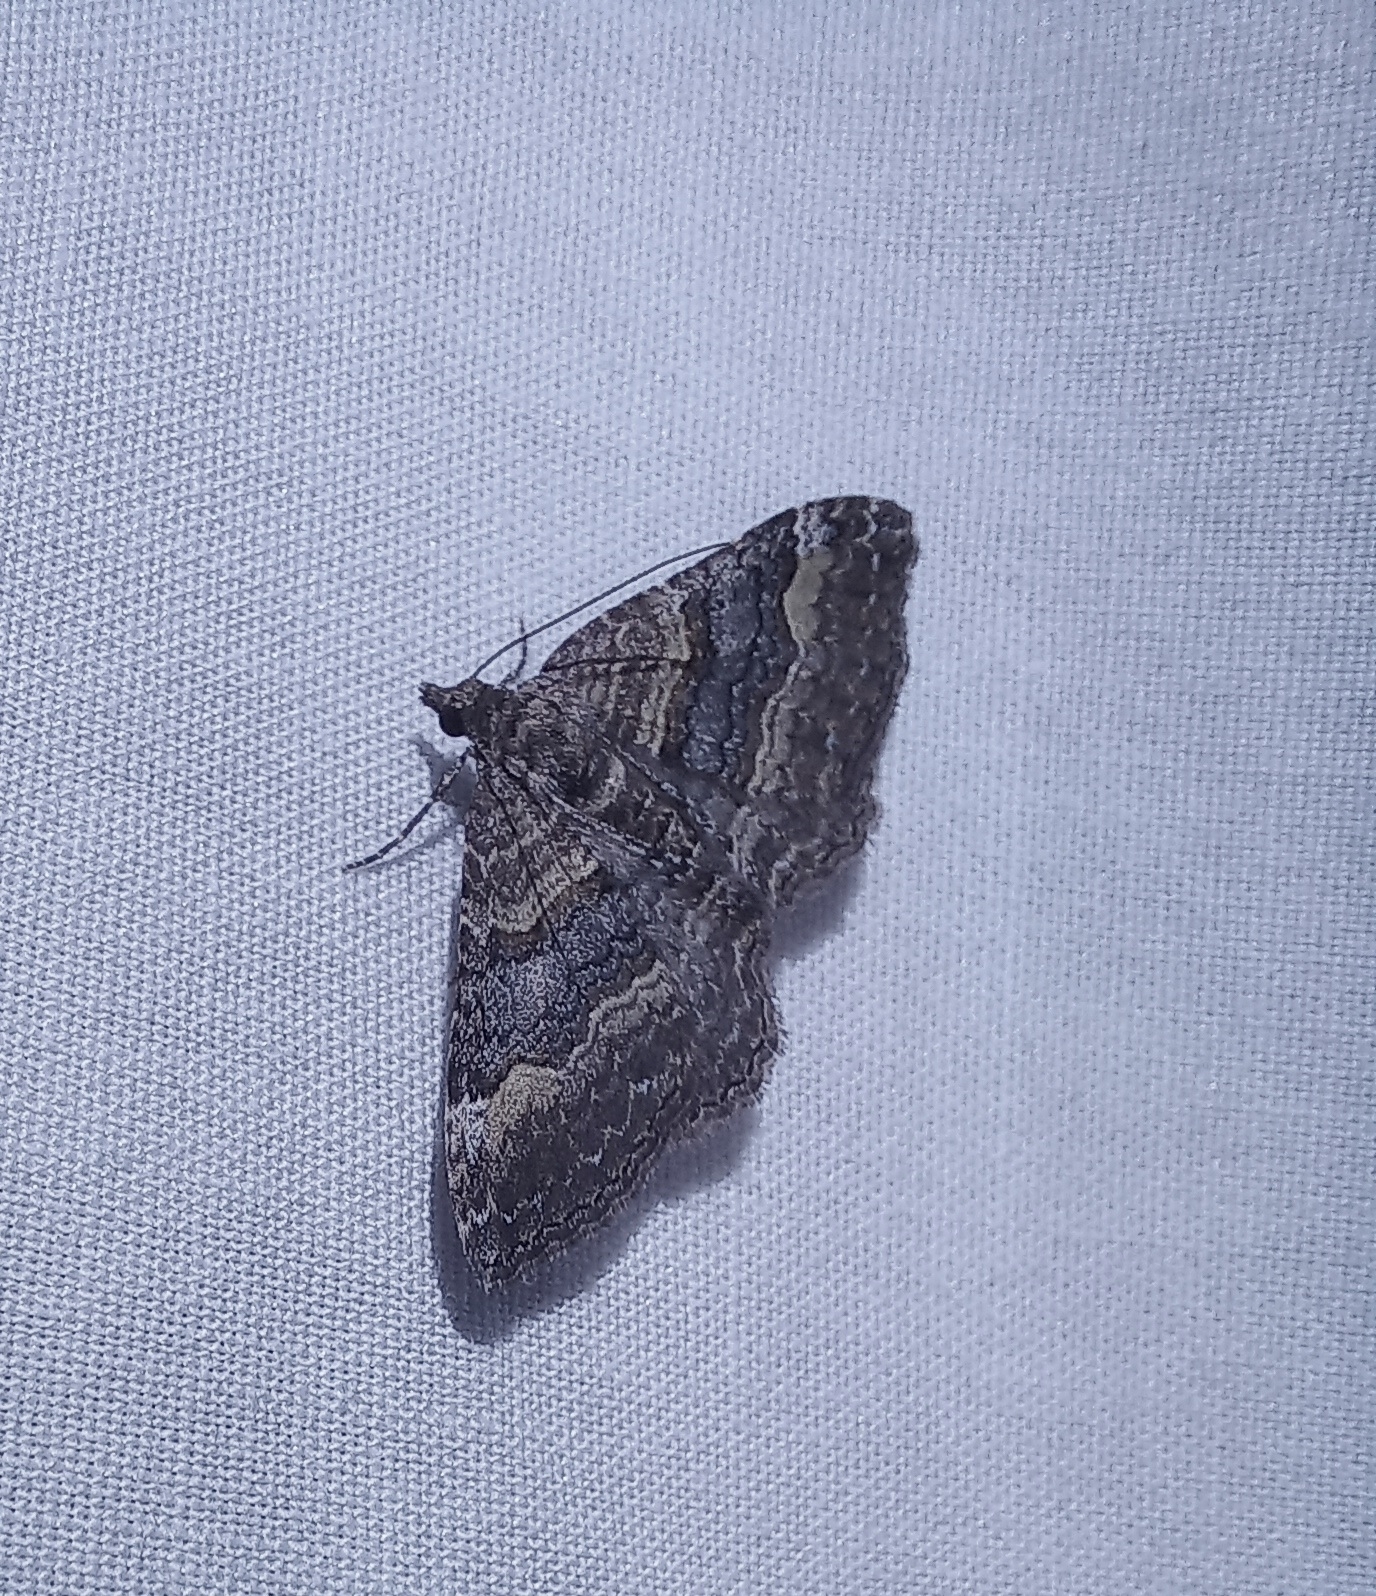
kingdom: Animalia
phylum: Arthropoda
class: Insecta
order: Lepidoptera
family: Geometridae
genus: Epyaxa
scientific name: Epyaxa lucidata
